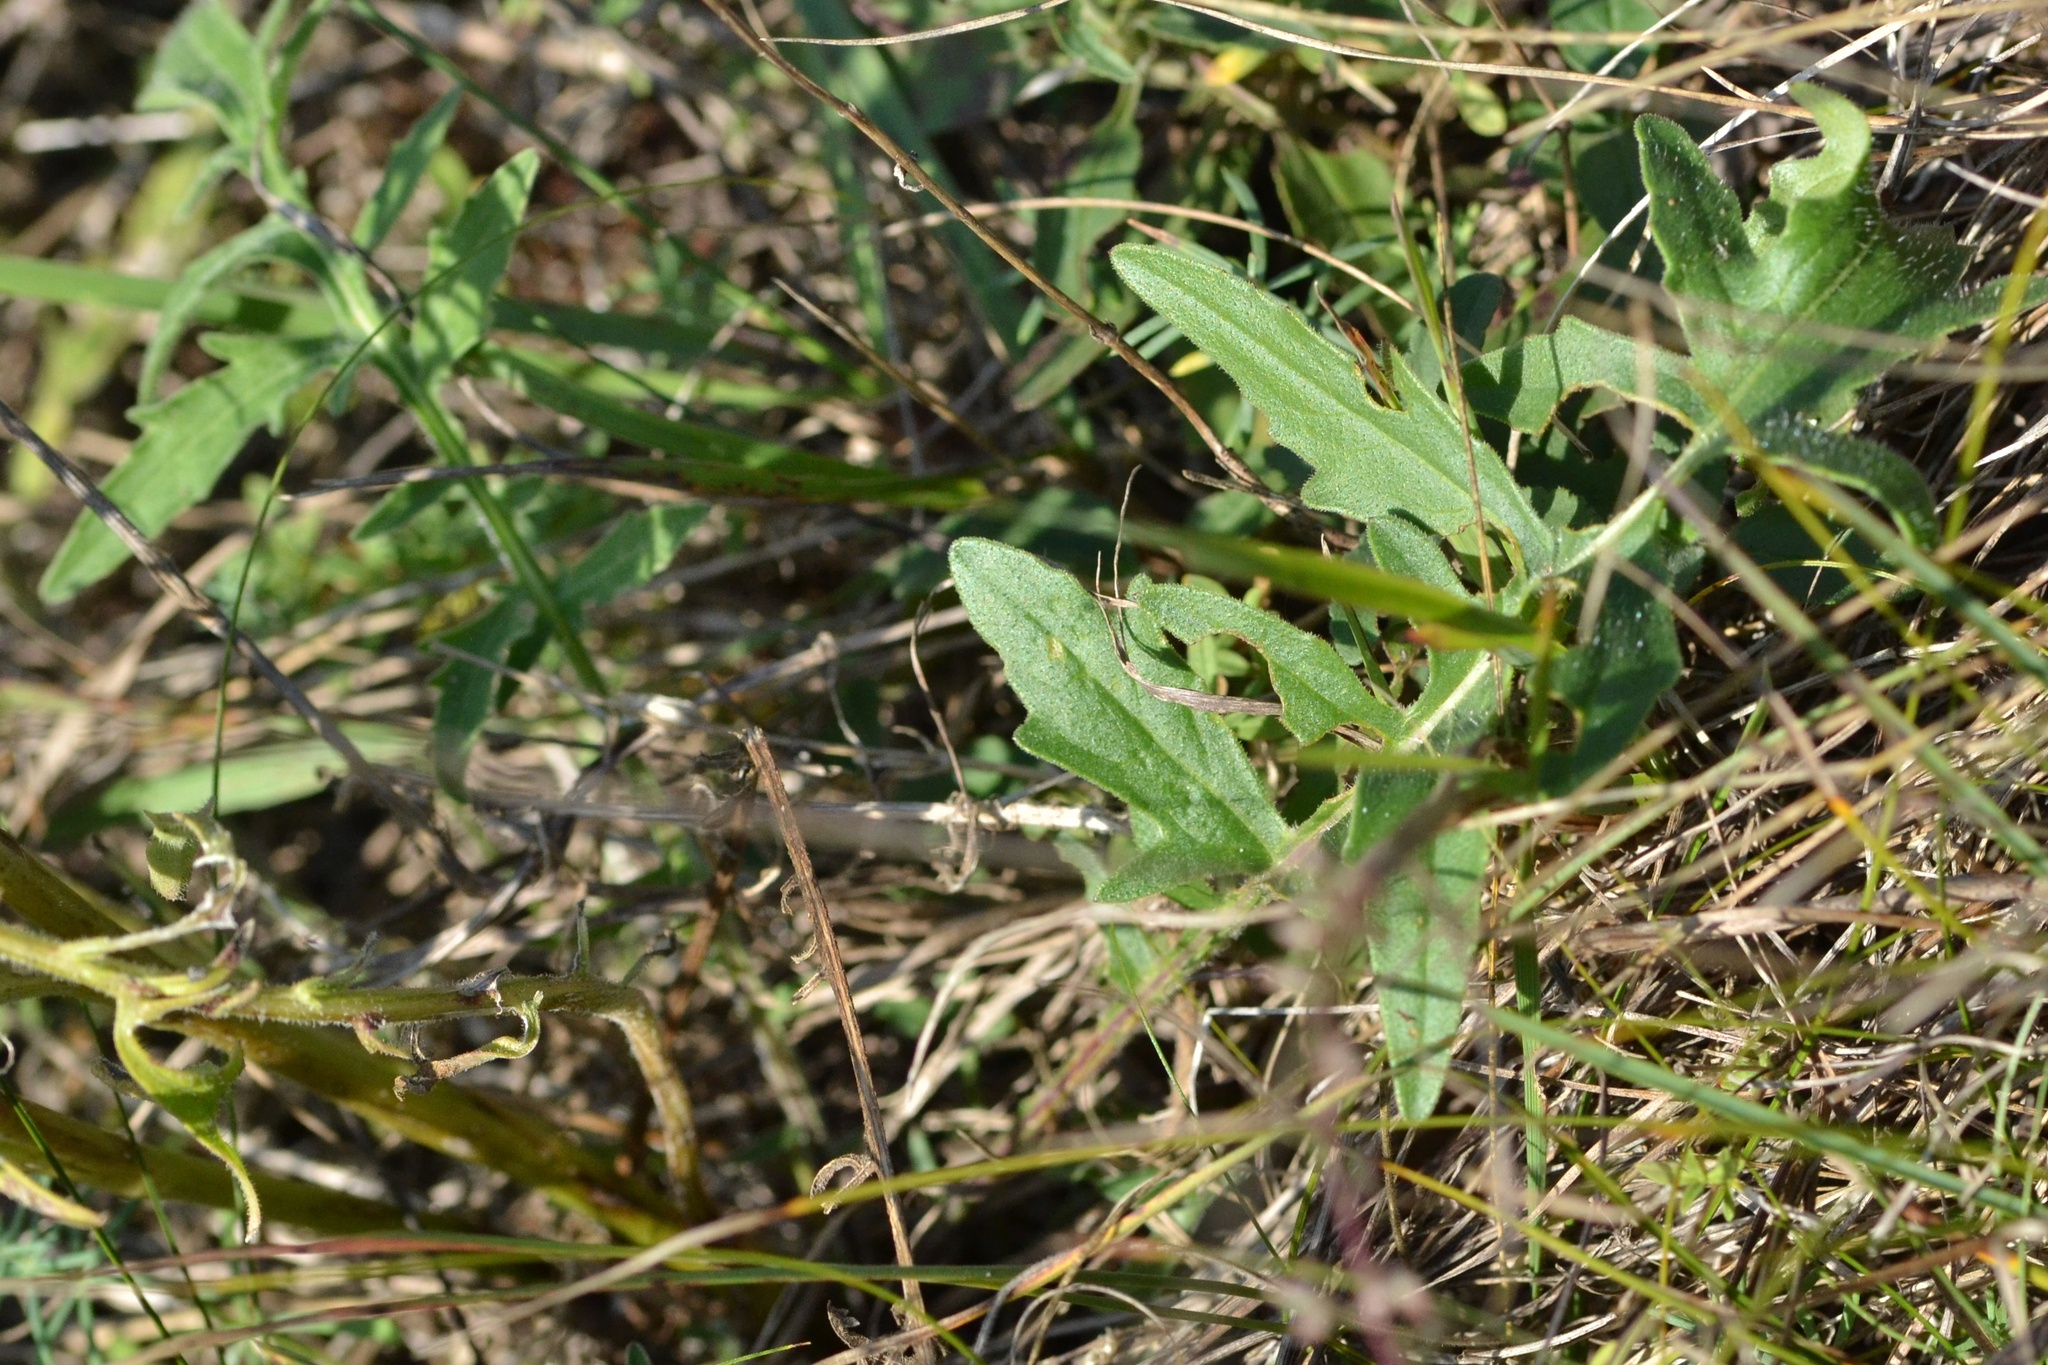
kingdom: Plantae
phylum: Tracheophyta
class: Magnoliopsida
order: Asterales
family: Asteraceae
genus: Centaurea
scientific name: Centaurea scabiosa
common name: Greater knapweed
